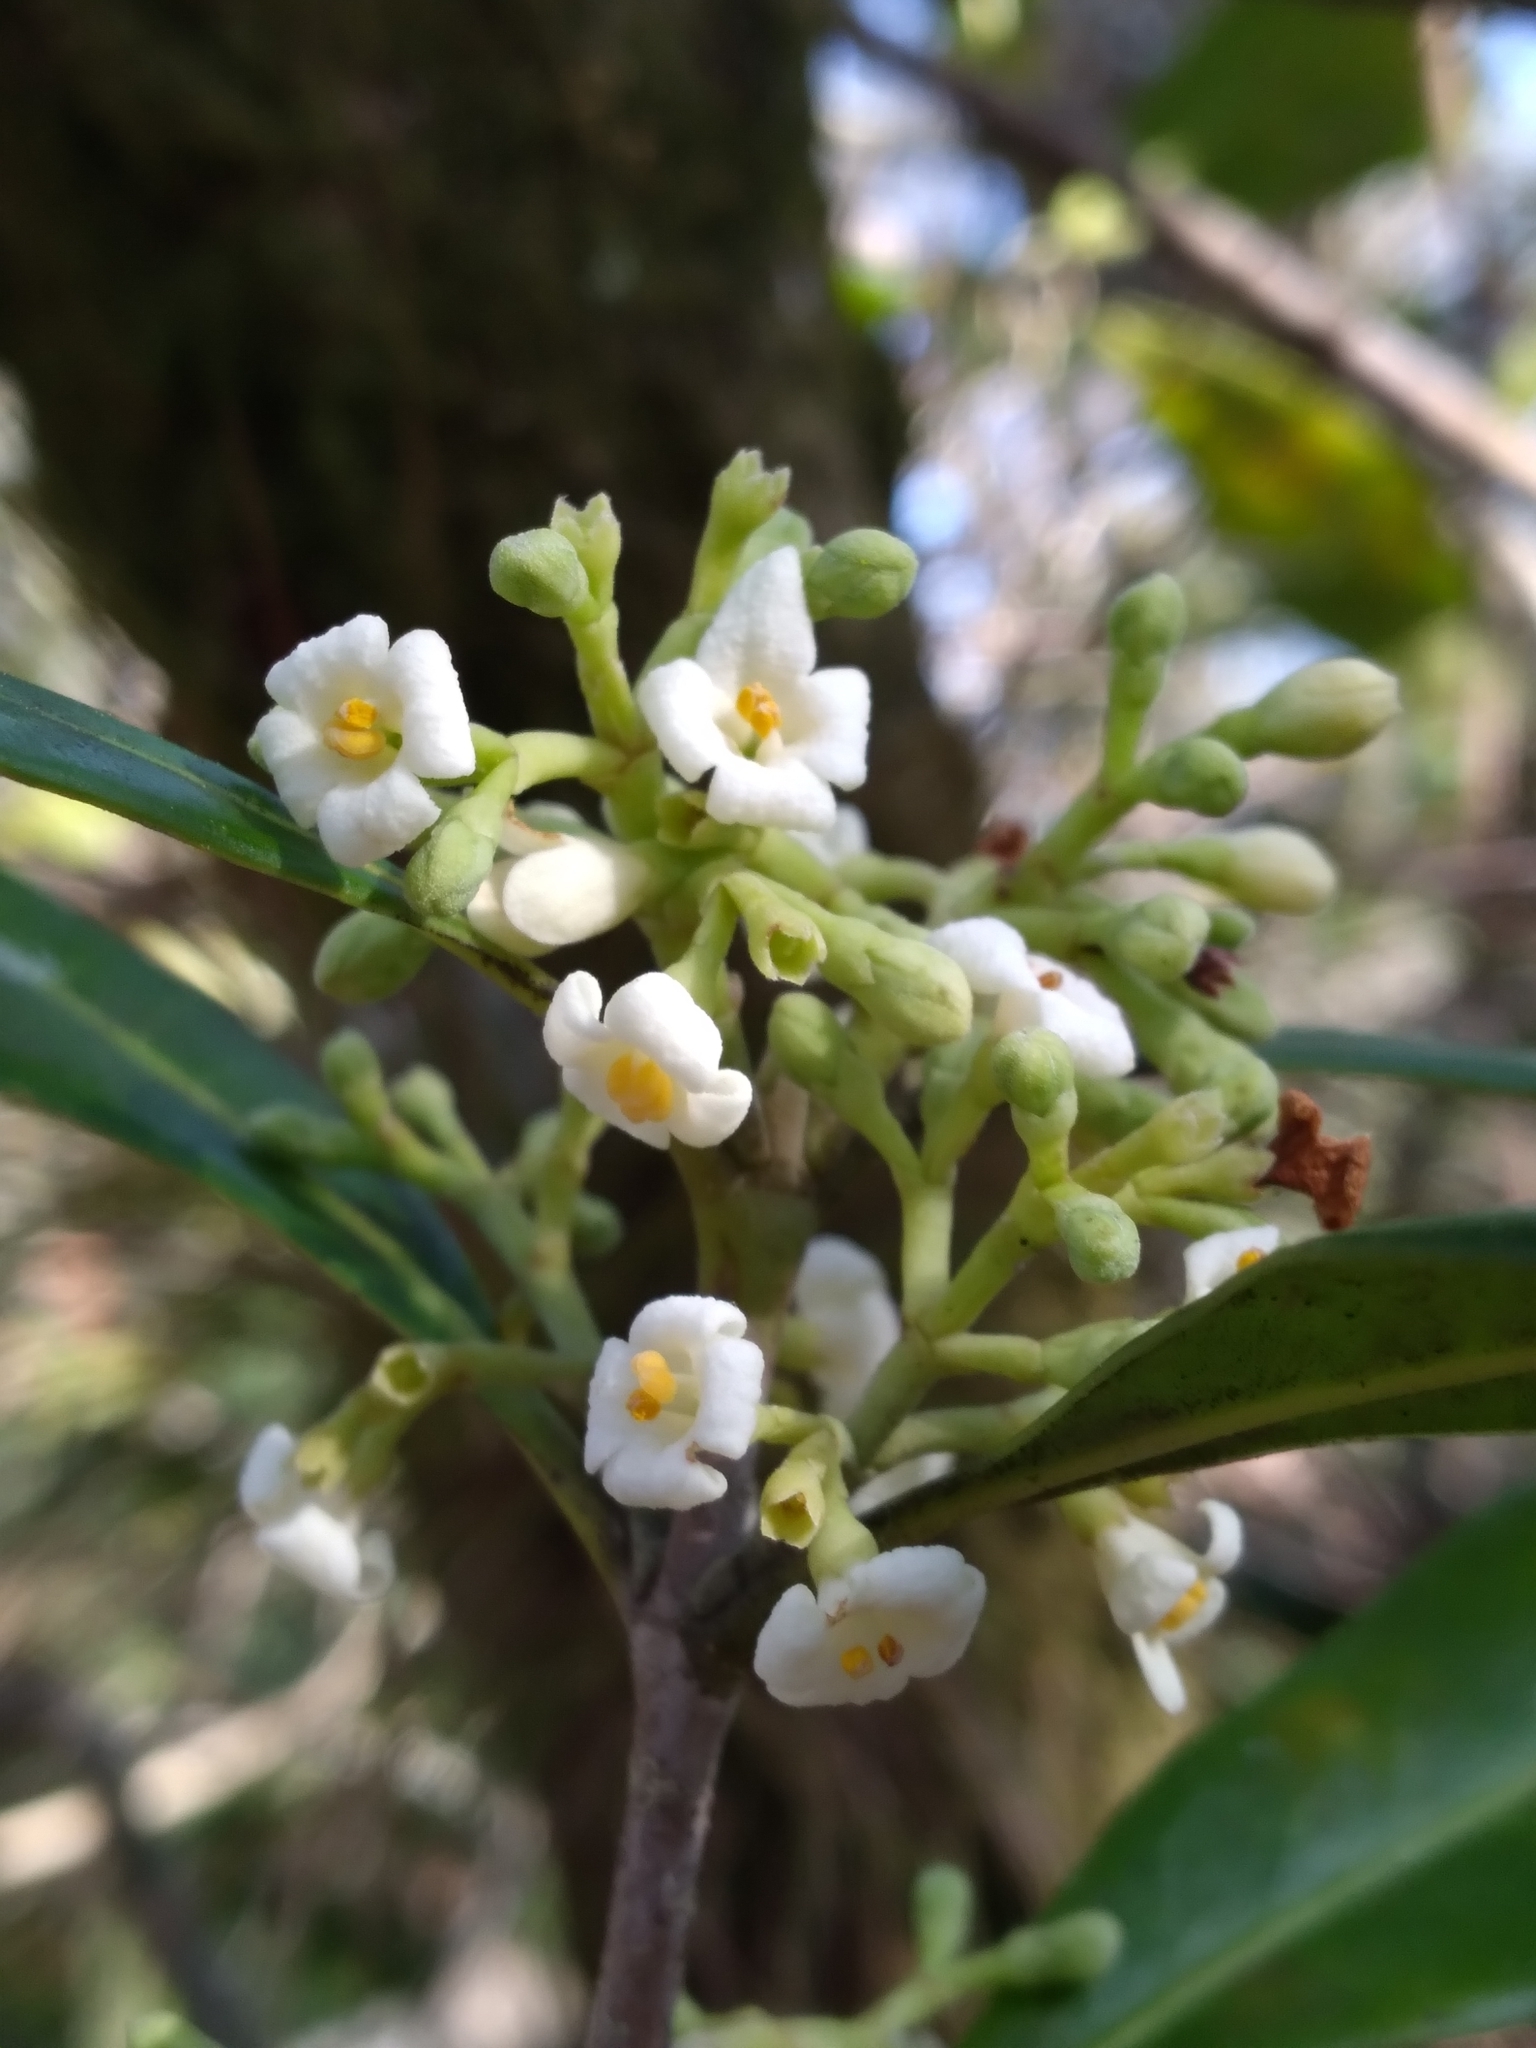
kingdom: Plantae
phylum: Tracheophyta
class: Magnoliopsida
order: Lamiales
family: Oleaceae
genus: Cartrema
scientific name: Cartrema floridana
